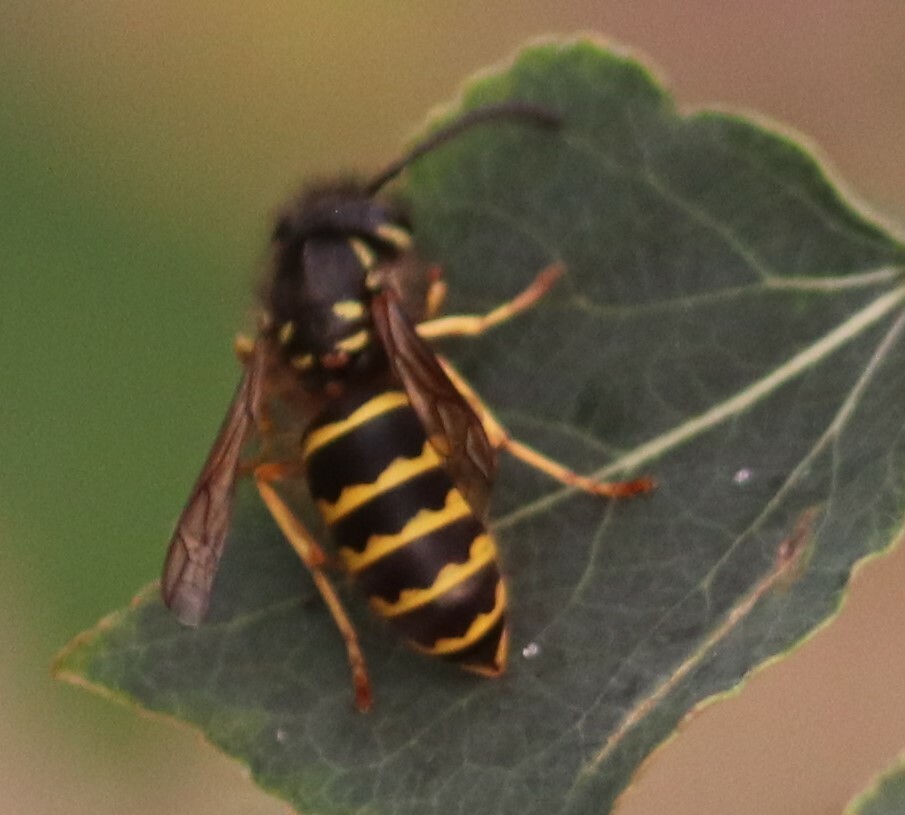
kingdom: Animalia
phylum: Arthropoda
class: Insecta
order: Hymenoptera
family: Vespidae
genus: Vespula
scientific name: Vespula alascensis
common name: Alaska yellowjacket
